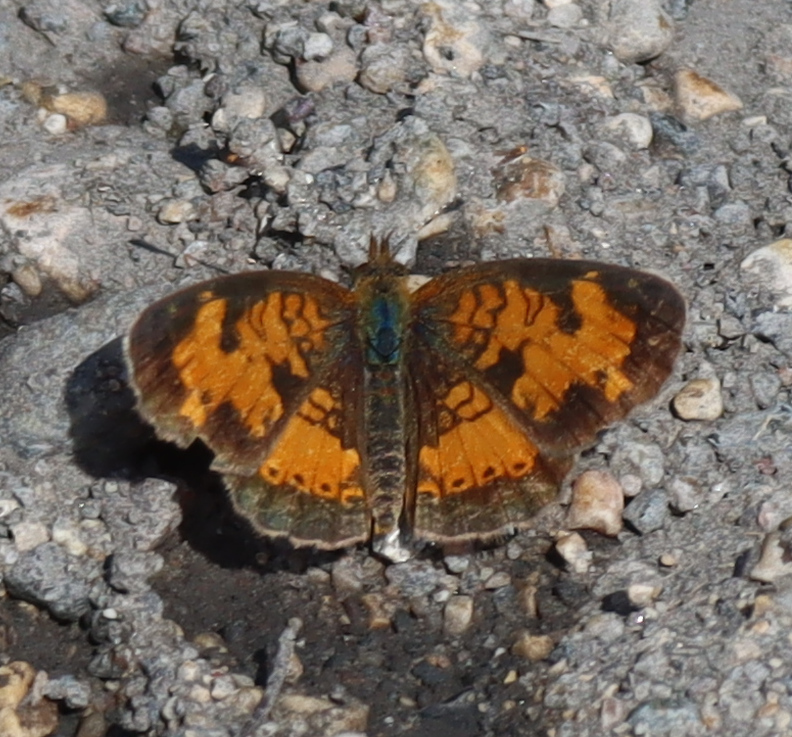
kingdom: Animalia
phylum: Arthropoda
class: Insecta
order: Lepidoptera
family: Nymphalidae
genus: Phyciodes
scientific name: Phyciodes tharos
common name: Pearl crescent
